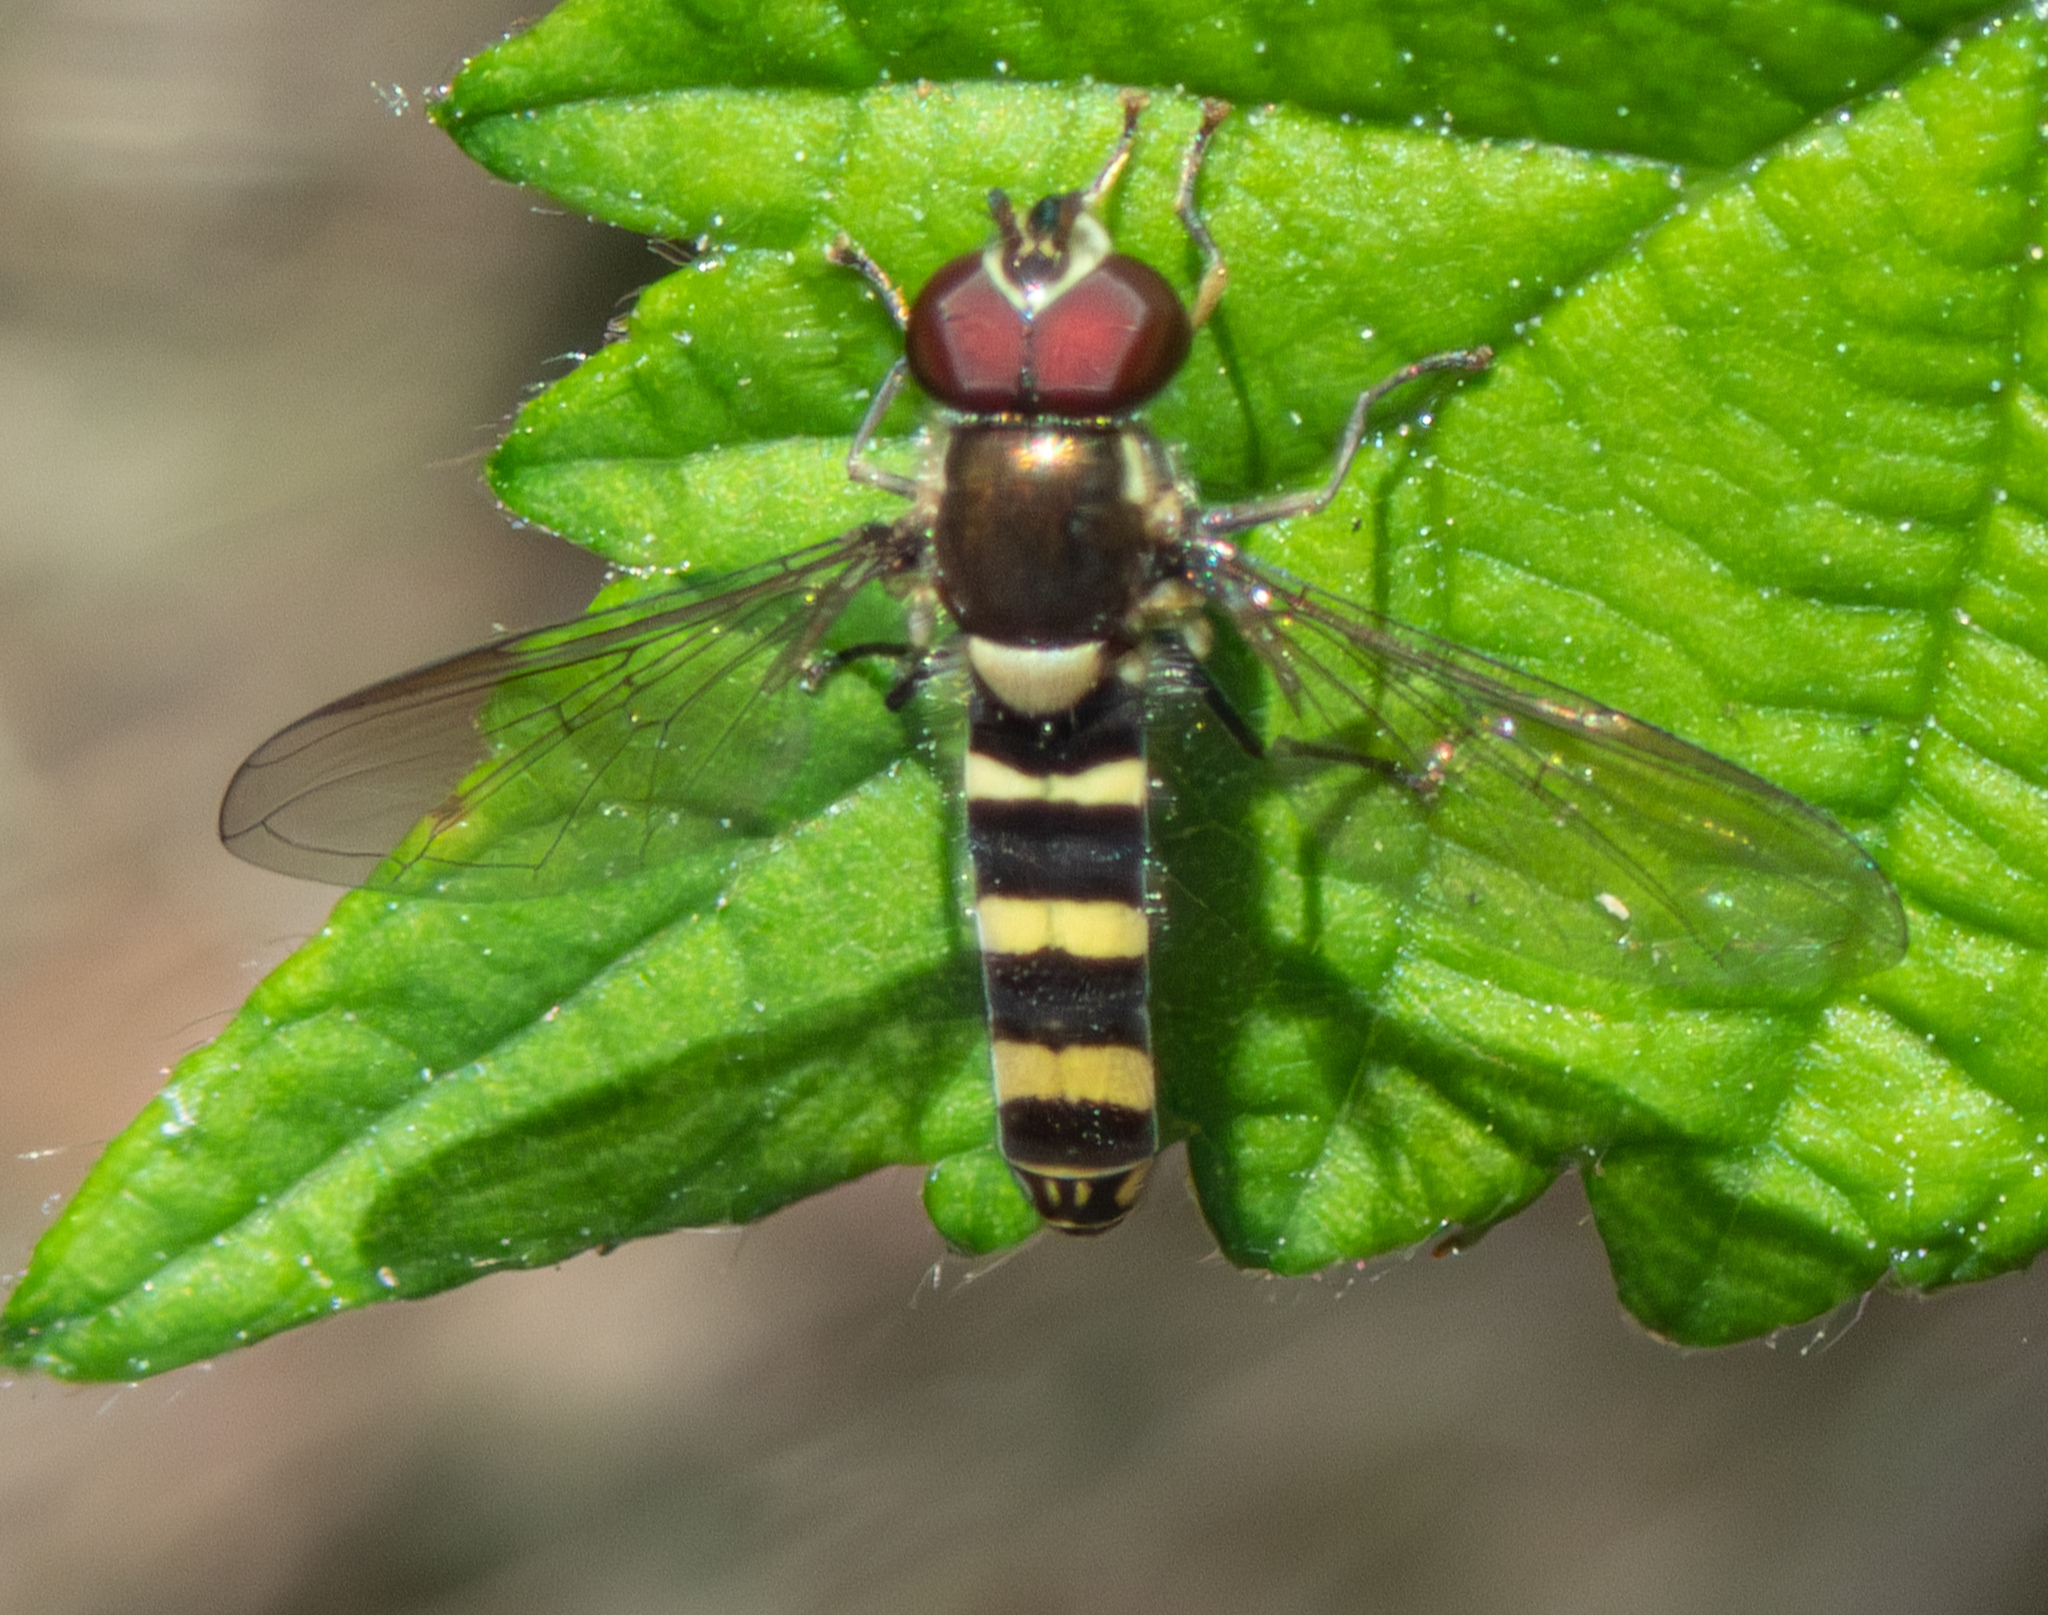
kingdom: Animalia
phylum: Arthropoda
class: Insecta
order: Diptera
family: Syrphidae
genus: Fazia
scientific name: Fazia micrura
